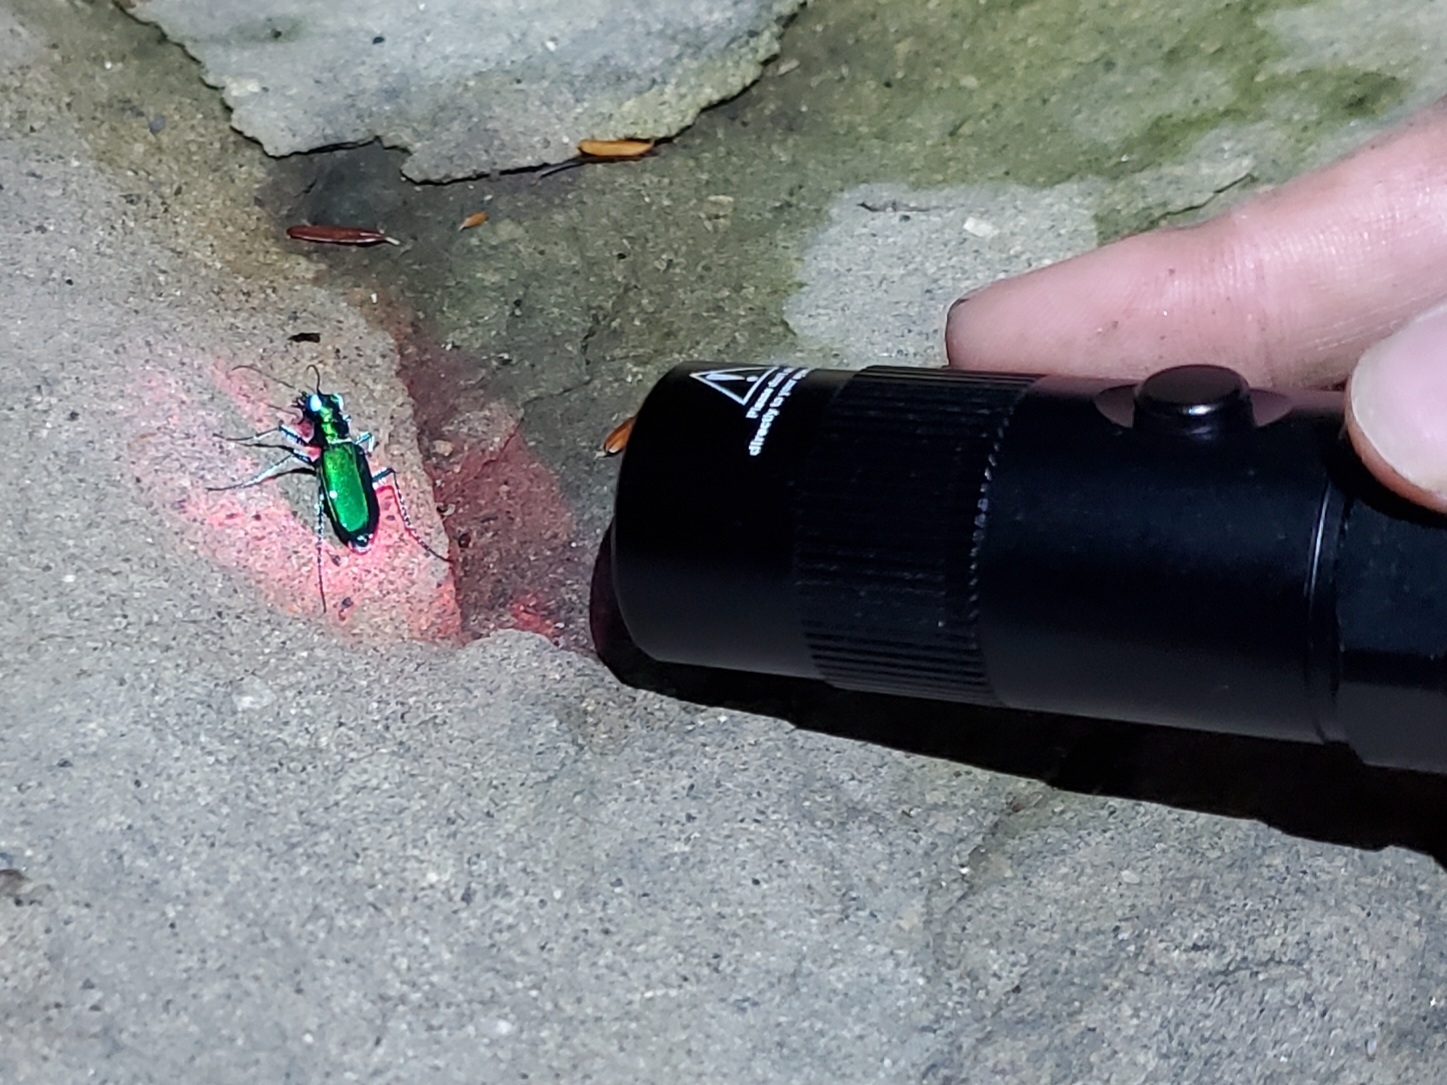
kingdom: Animalia
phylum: Arthropoda
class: Insecta
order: Coleoptera
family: Carabidae
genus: Cicindela
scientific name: Cicindela sexguttata
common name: Six-spotted tiger beetle
